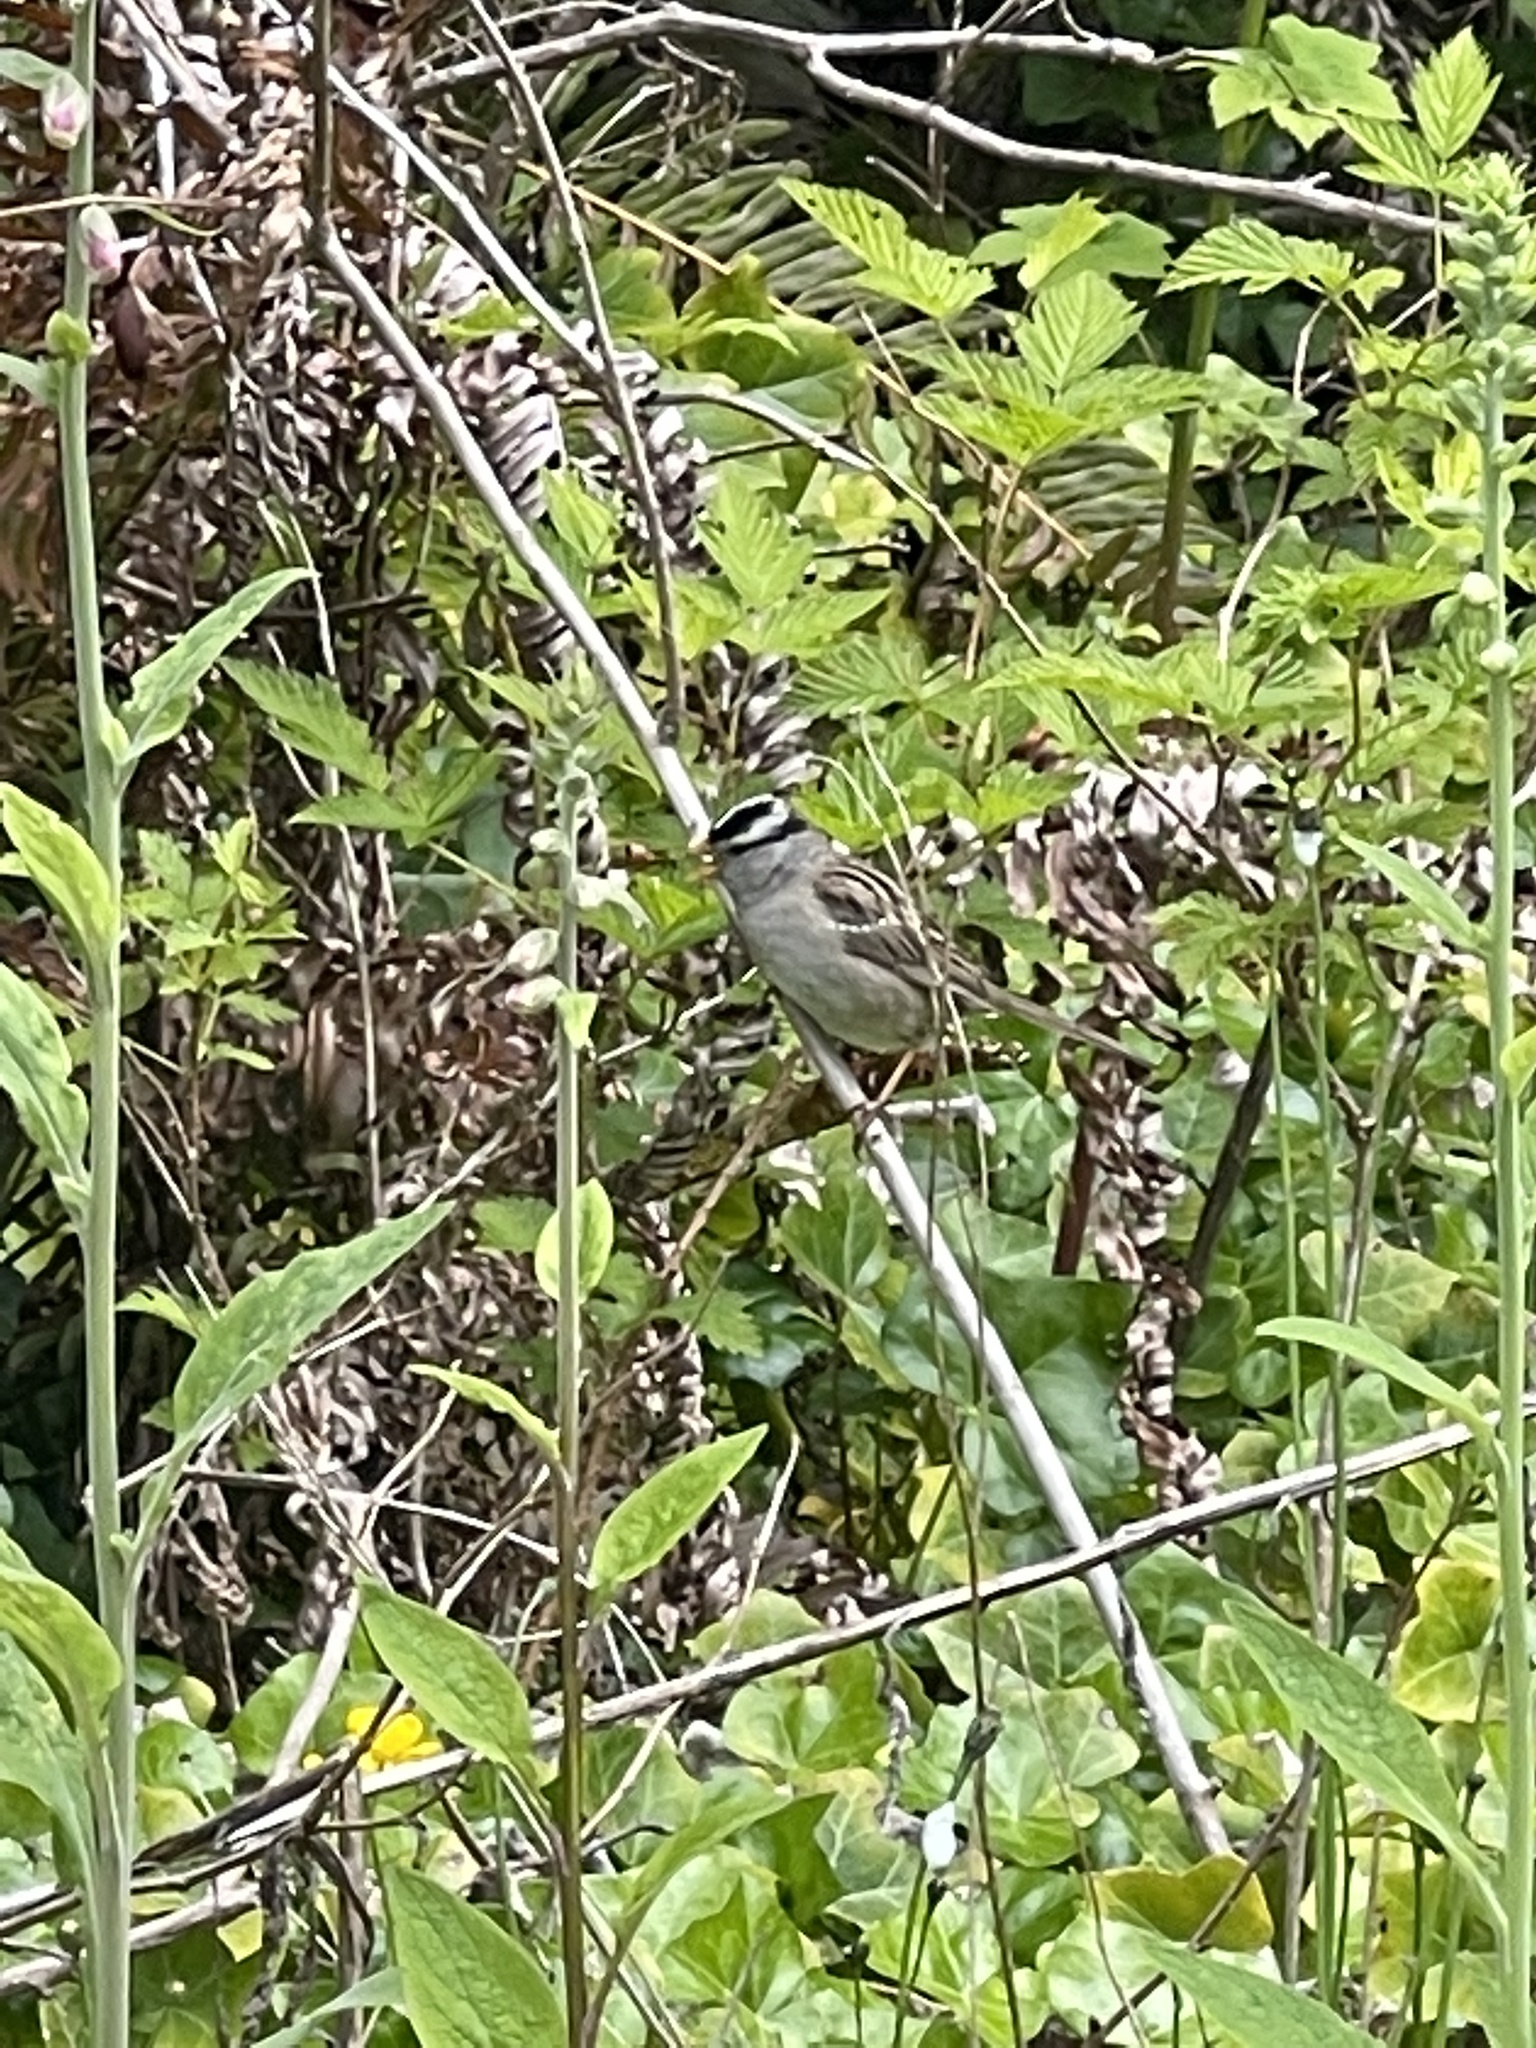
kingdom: Animalia
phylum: Chordata
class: Aves
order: Passeriformes
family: Passerellidae
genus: Zonotrichia
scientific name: Zonotrichia leucophrys
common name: White-crowned sparrow
